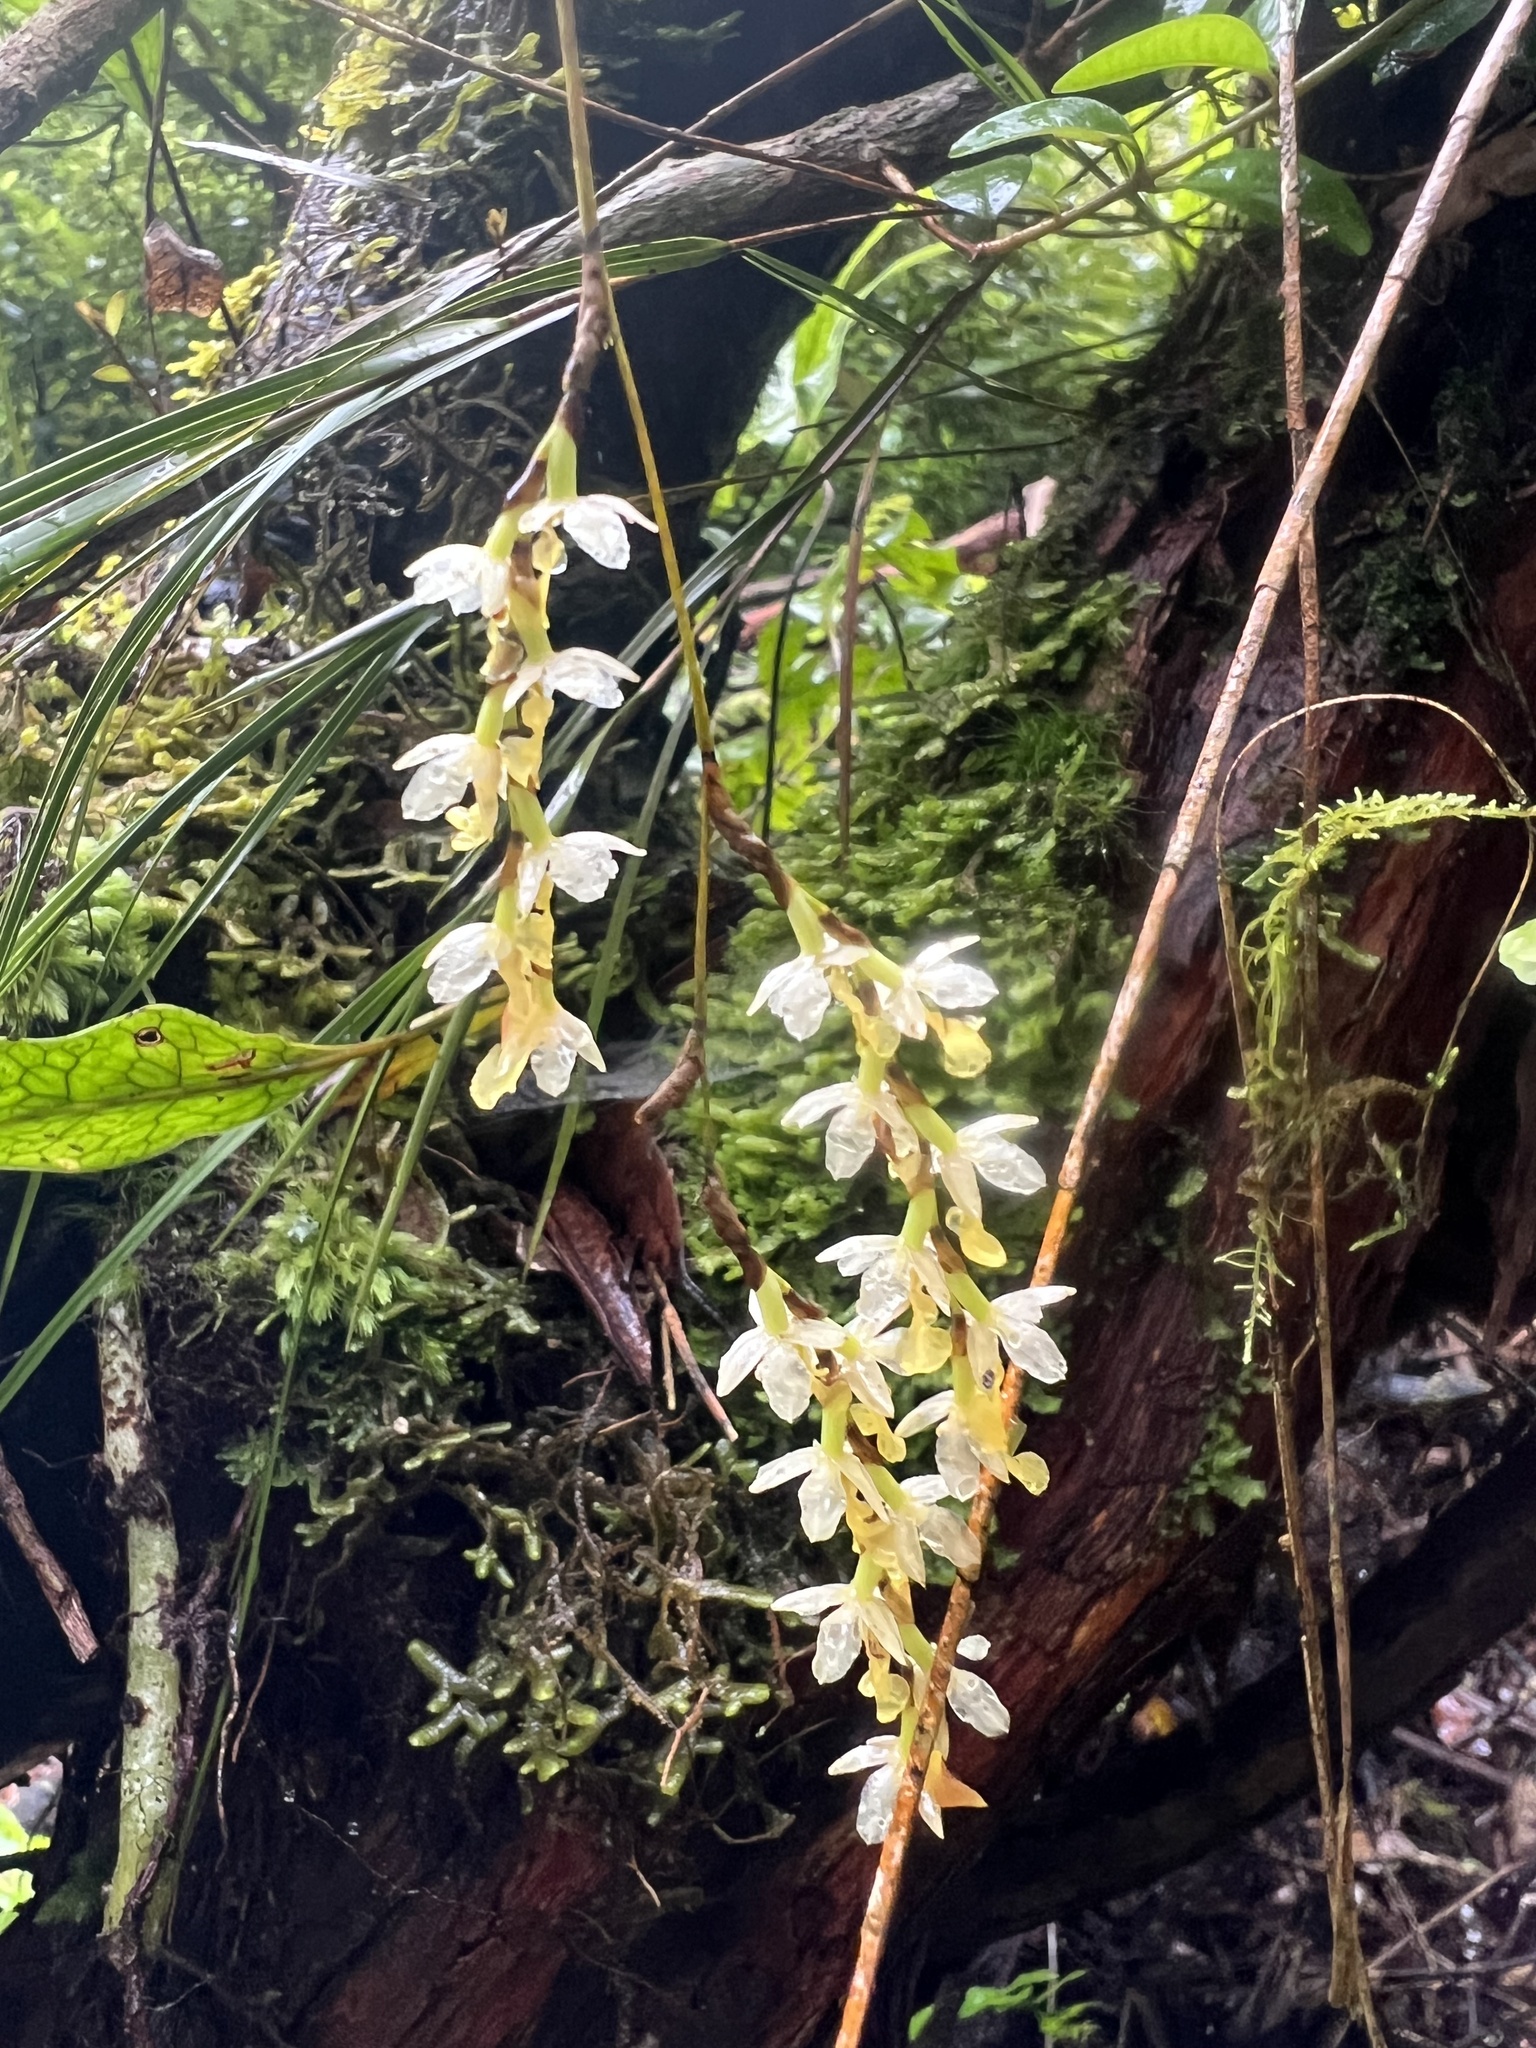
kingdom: Plantae
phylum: Tracheophyta
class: Liliopsida
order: Asparagales
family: Orchidaceae
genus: Earina
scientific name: Earina mucronata
